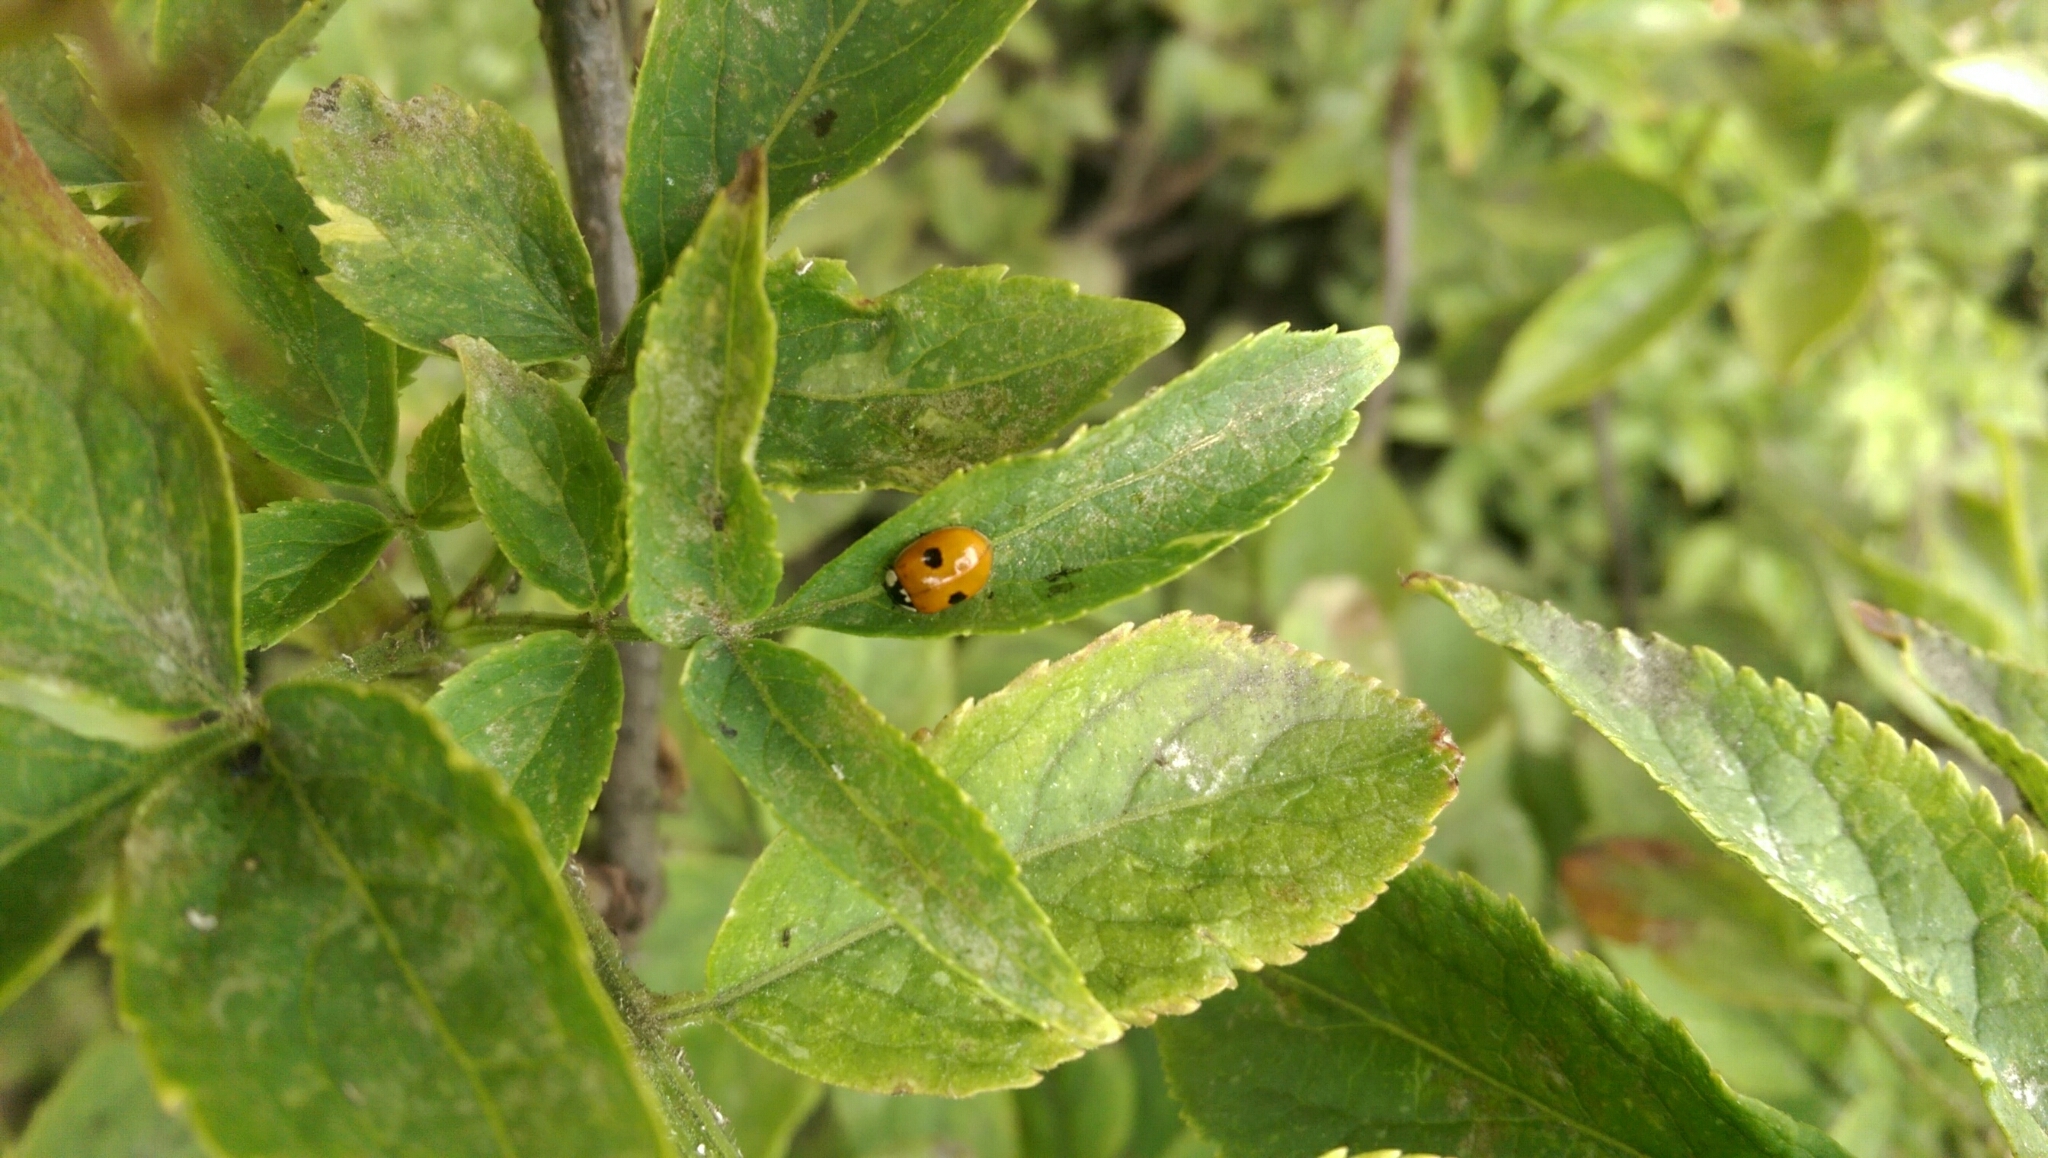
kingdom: Animalia
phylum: Arthropoda
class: Insecta
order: Coleoptera
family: Coccinellidae
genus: Adalia
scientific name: Adalia bipunctata
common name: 2-spot ladybird
